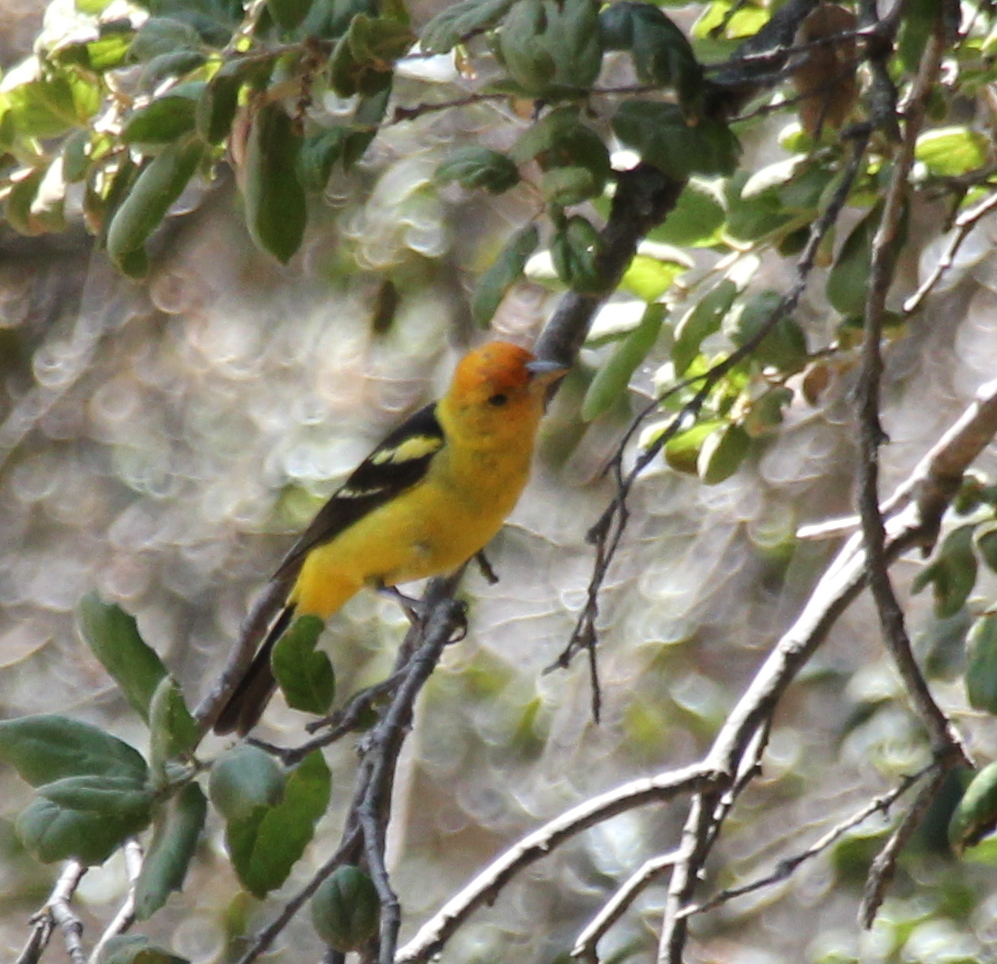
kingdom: Animalia
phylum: Chordata
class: Aves
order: Passeriformes
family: Cardinalidae
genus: Piranga
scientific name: Piranga ludoviciana
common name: Western tanager
